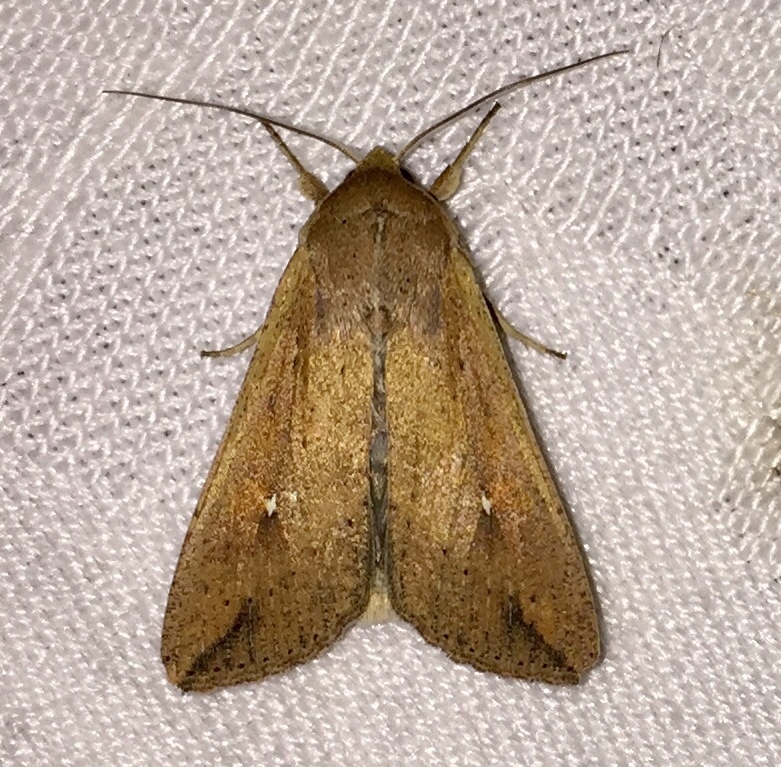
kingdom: Animalia
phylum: Arthropoda
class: Insecta
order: Lepidoptera
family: Noctuidae
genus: Mythimna
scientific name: Mythimna unipuncta
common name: White-speck
